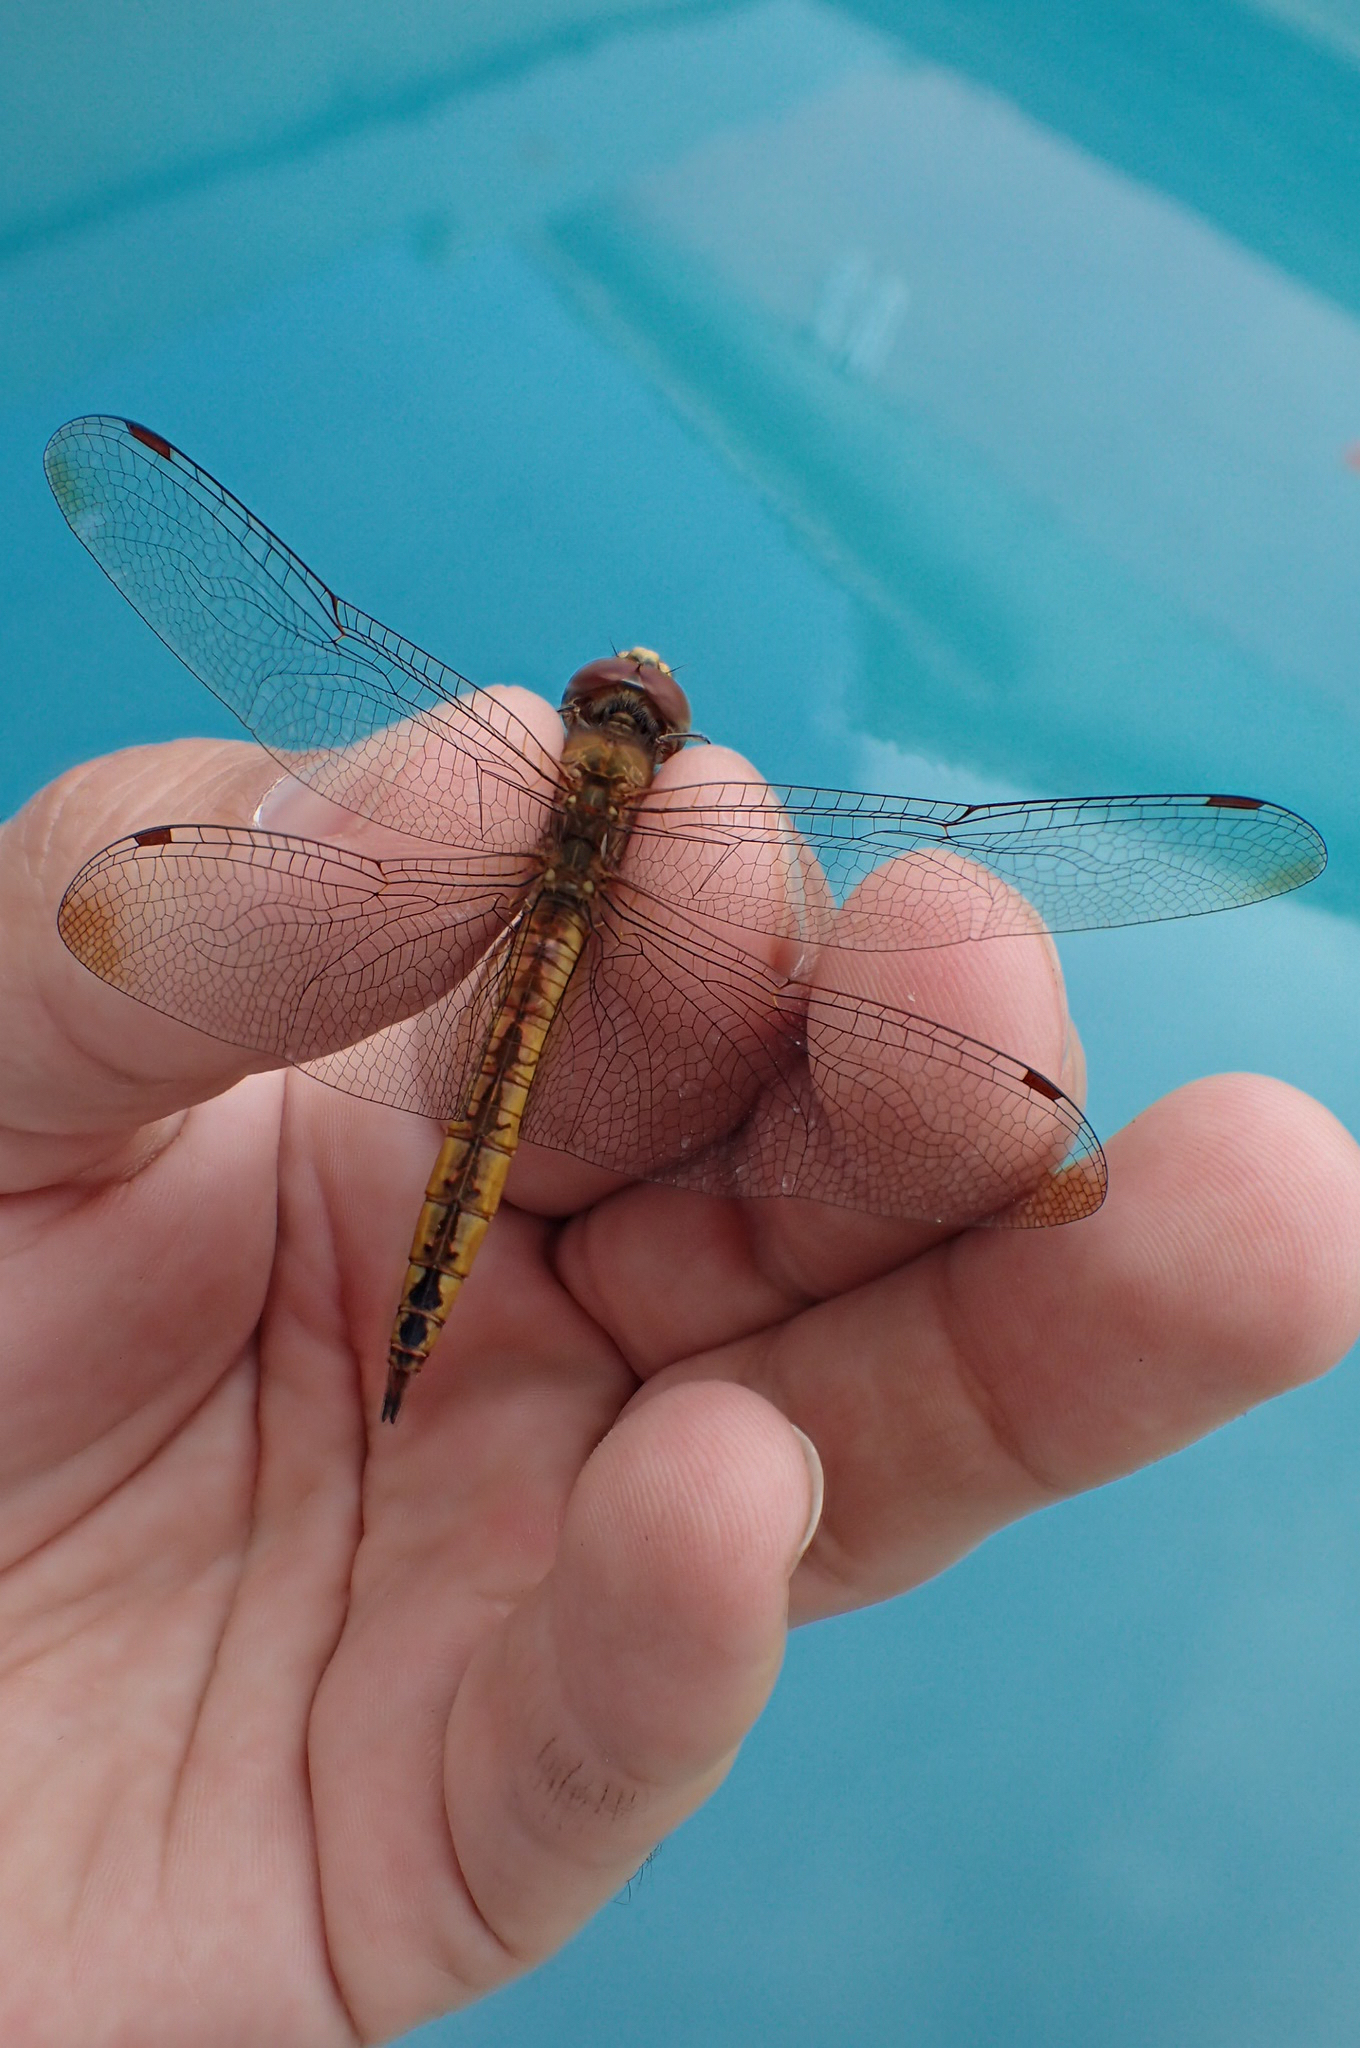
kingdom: Animalia
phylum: Arthropoda
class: Insecta
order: Odonata
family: Libellulidae
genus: Pantala
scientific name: Pantala flavescens
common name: Wandering glider
